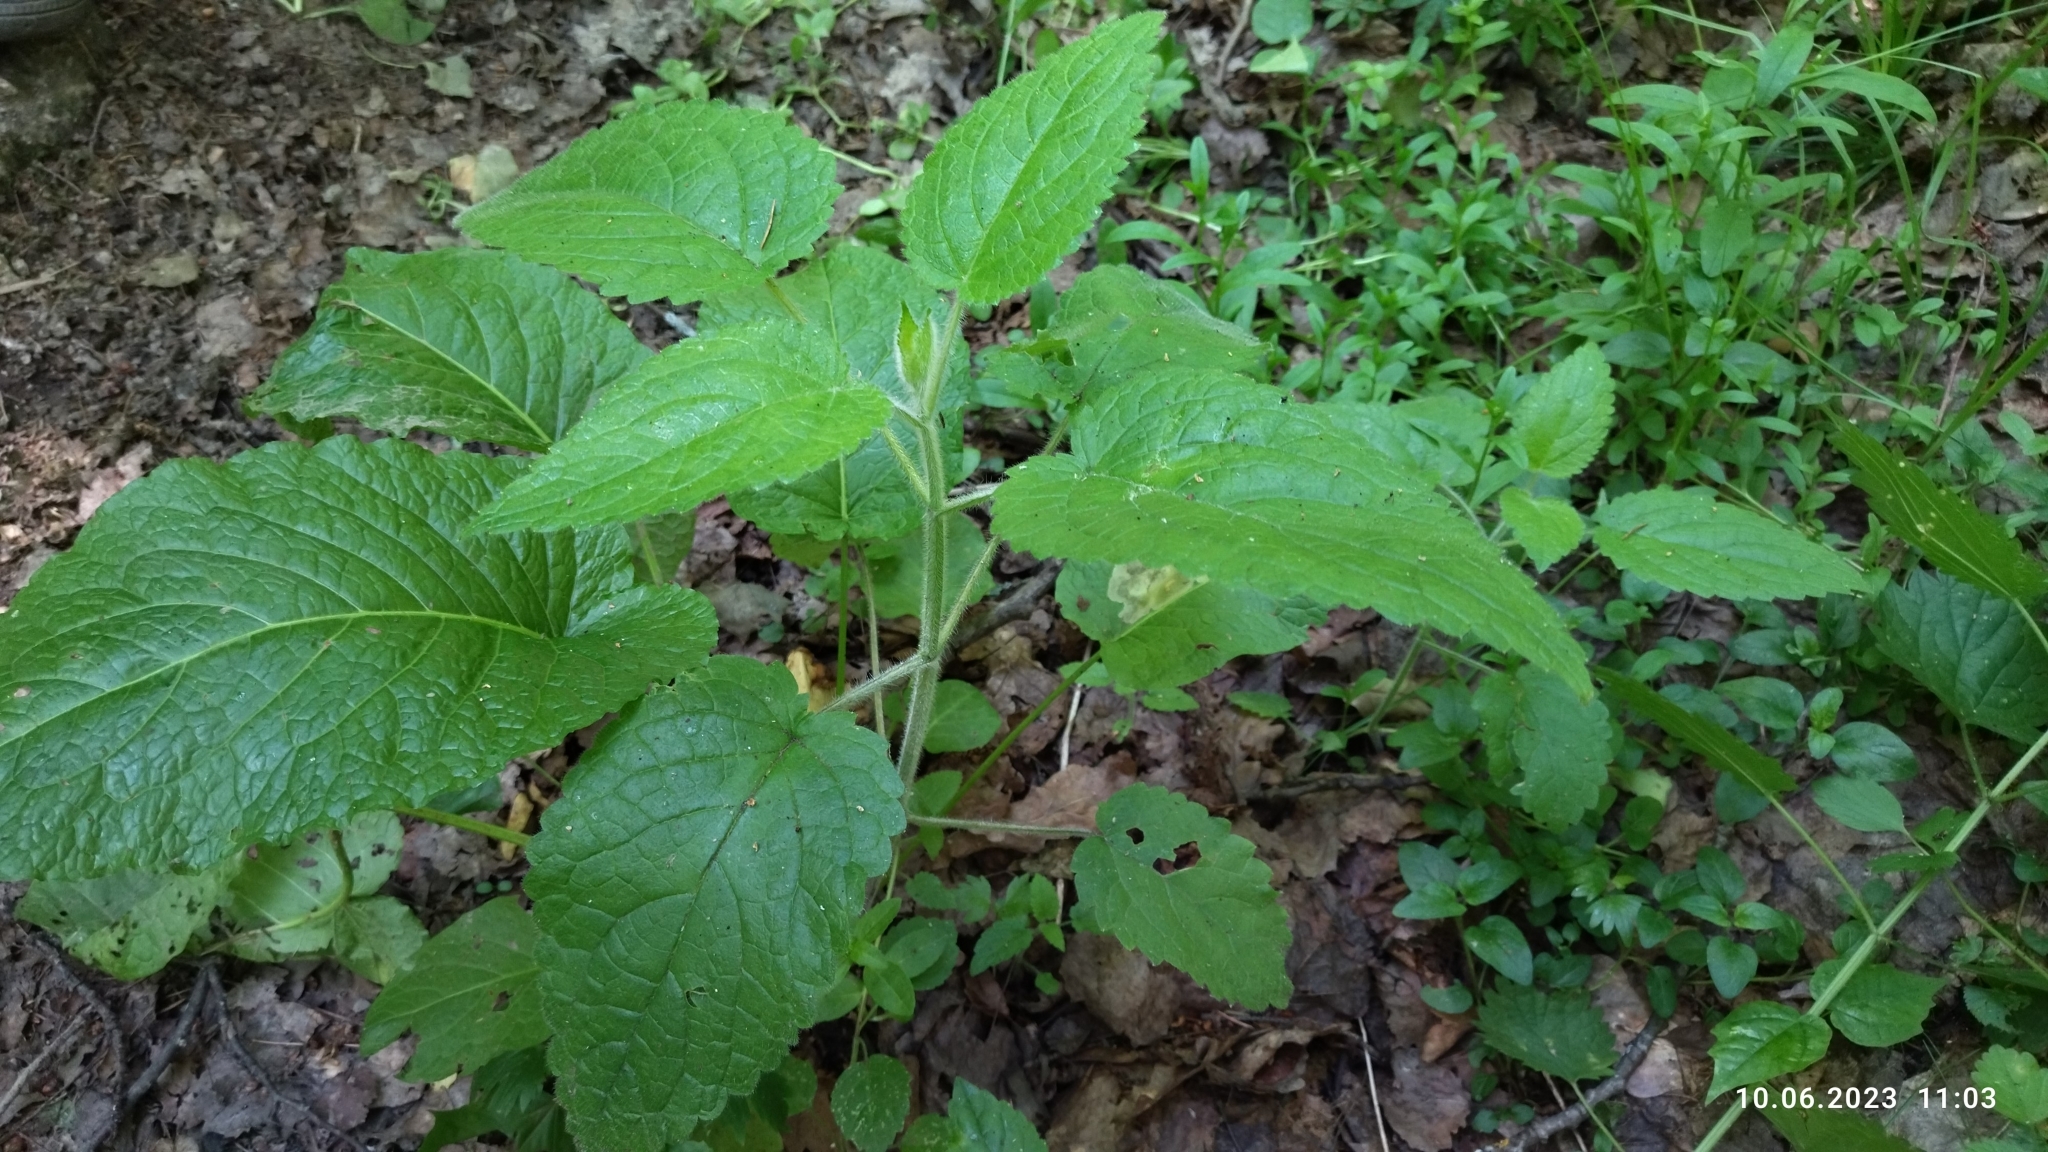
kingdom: Plantae
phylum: Tracheophyta
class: Magnoliopsida
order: Lamiales
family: Lamiaceae
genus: Stachys
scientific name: Stachys sylvatica
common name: Hedge woundwort
